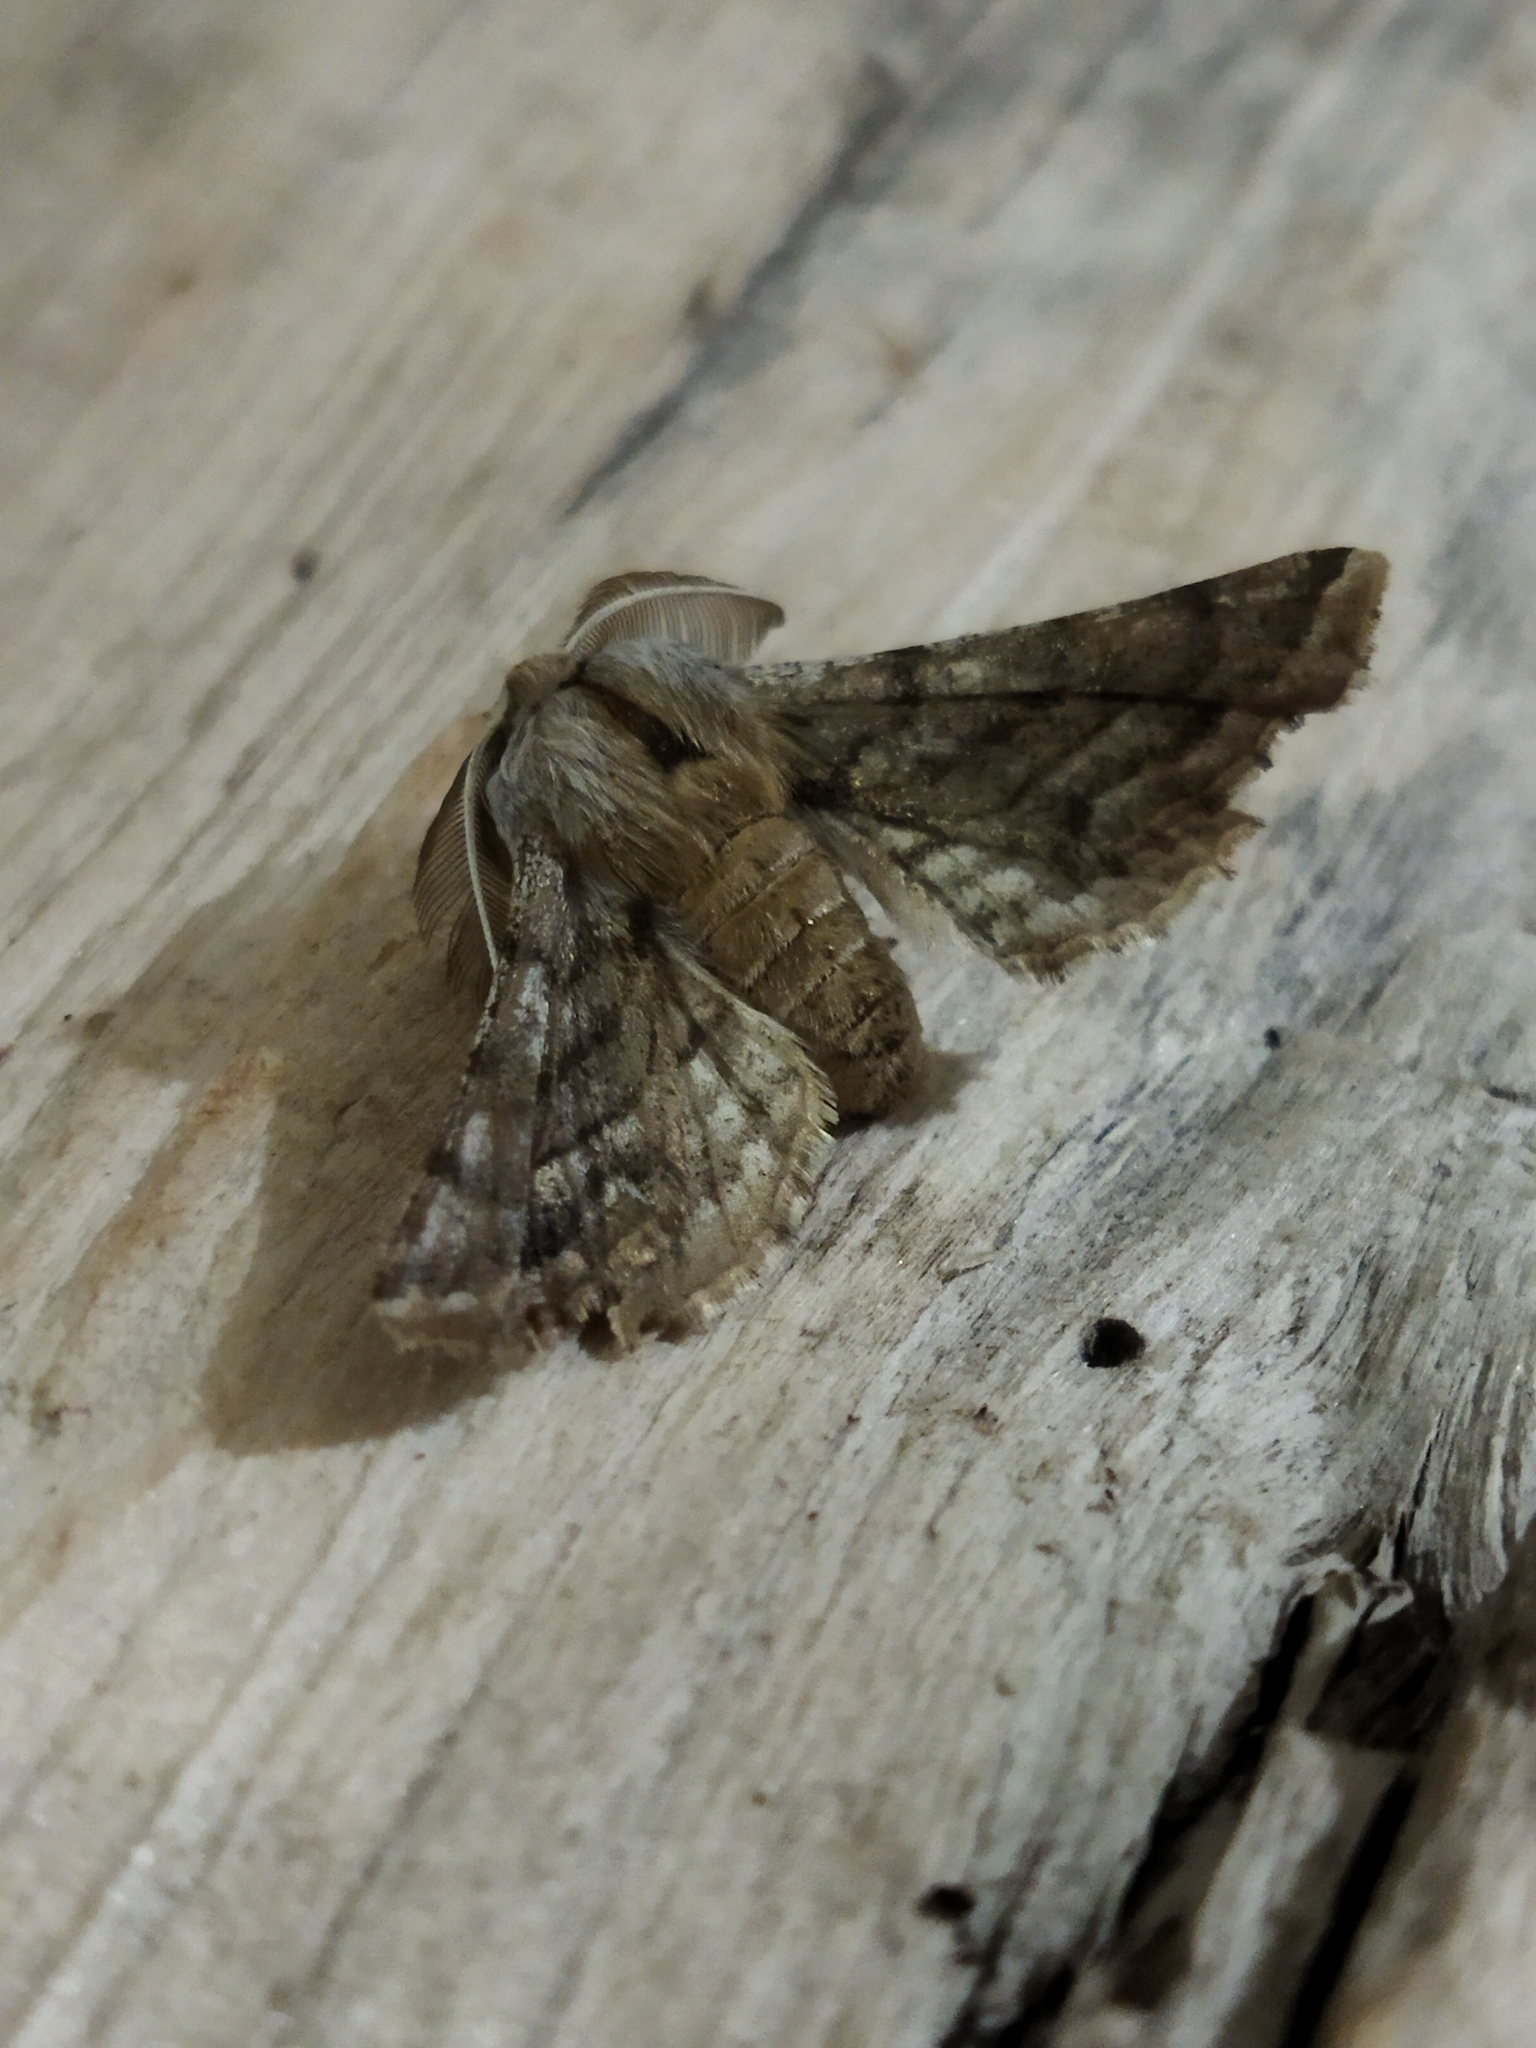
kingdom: Animalia
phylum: Arthropoda
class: Insecta
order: Lepidoptera
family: Geometridae
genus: Apochima
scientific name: Apochima flabellaria
